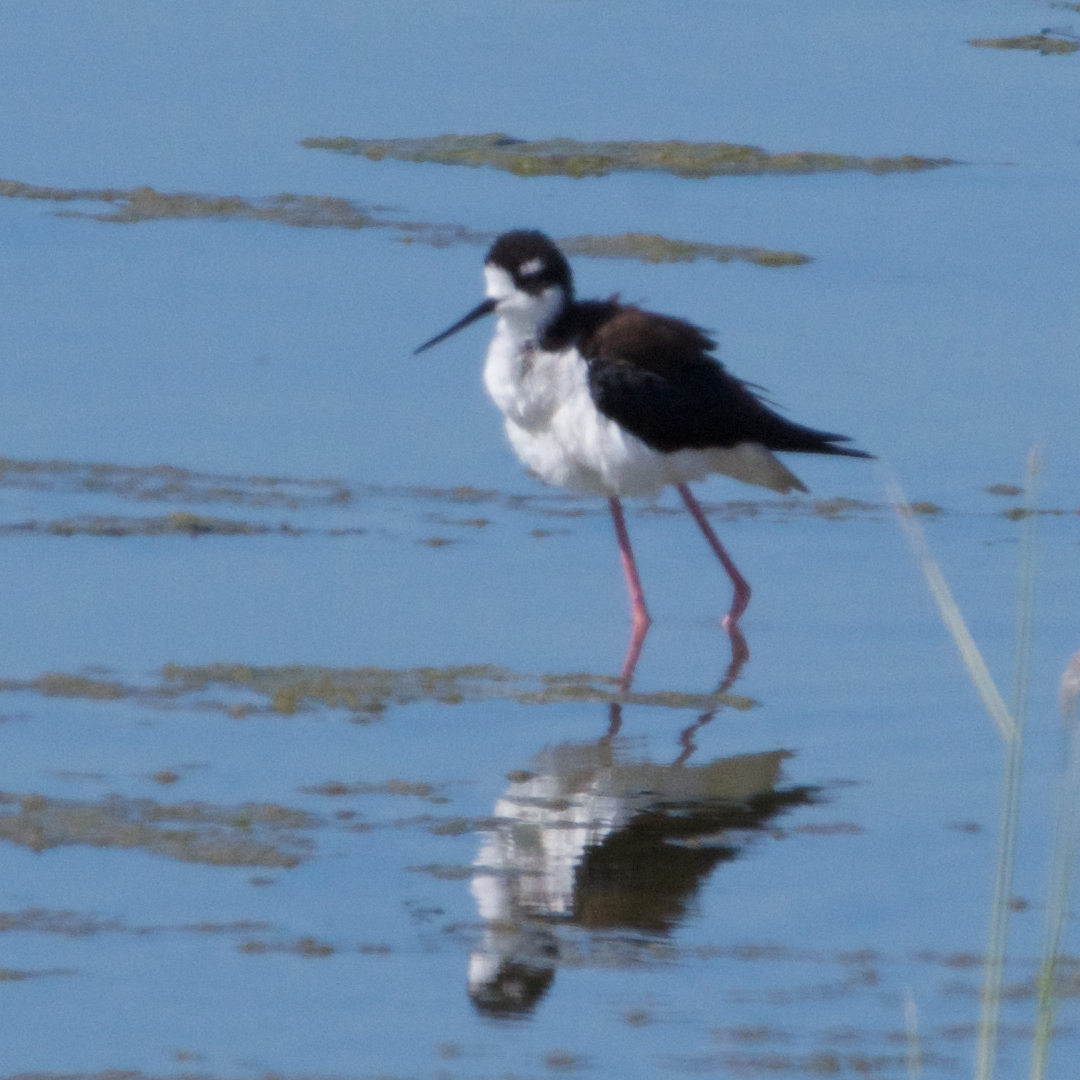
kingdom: Animalia
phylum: Chordata
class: Aves
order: Charadriiformes
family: Recurvirostridae
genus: Himantopus
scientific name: Himantopus mexicanus
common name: Black-necked stilt
